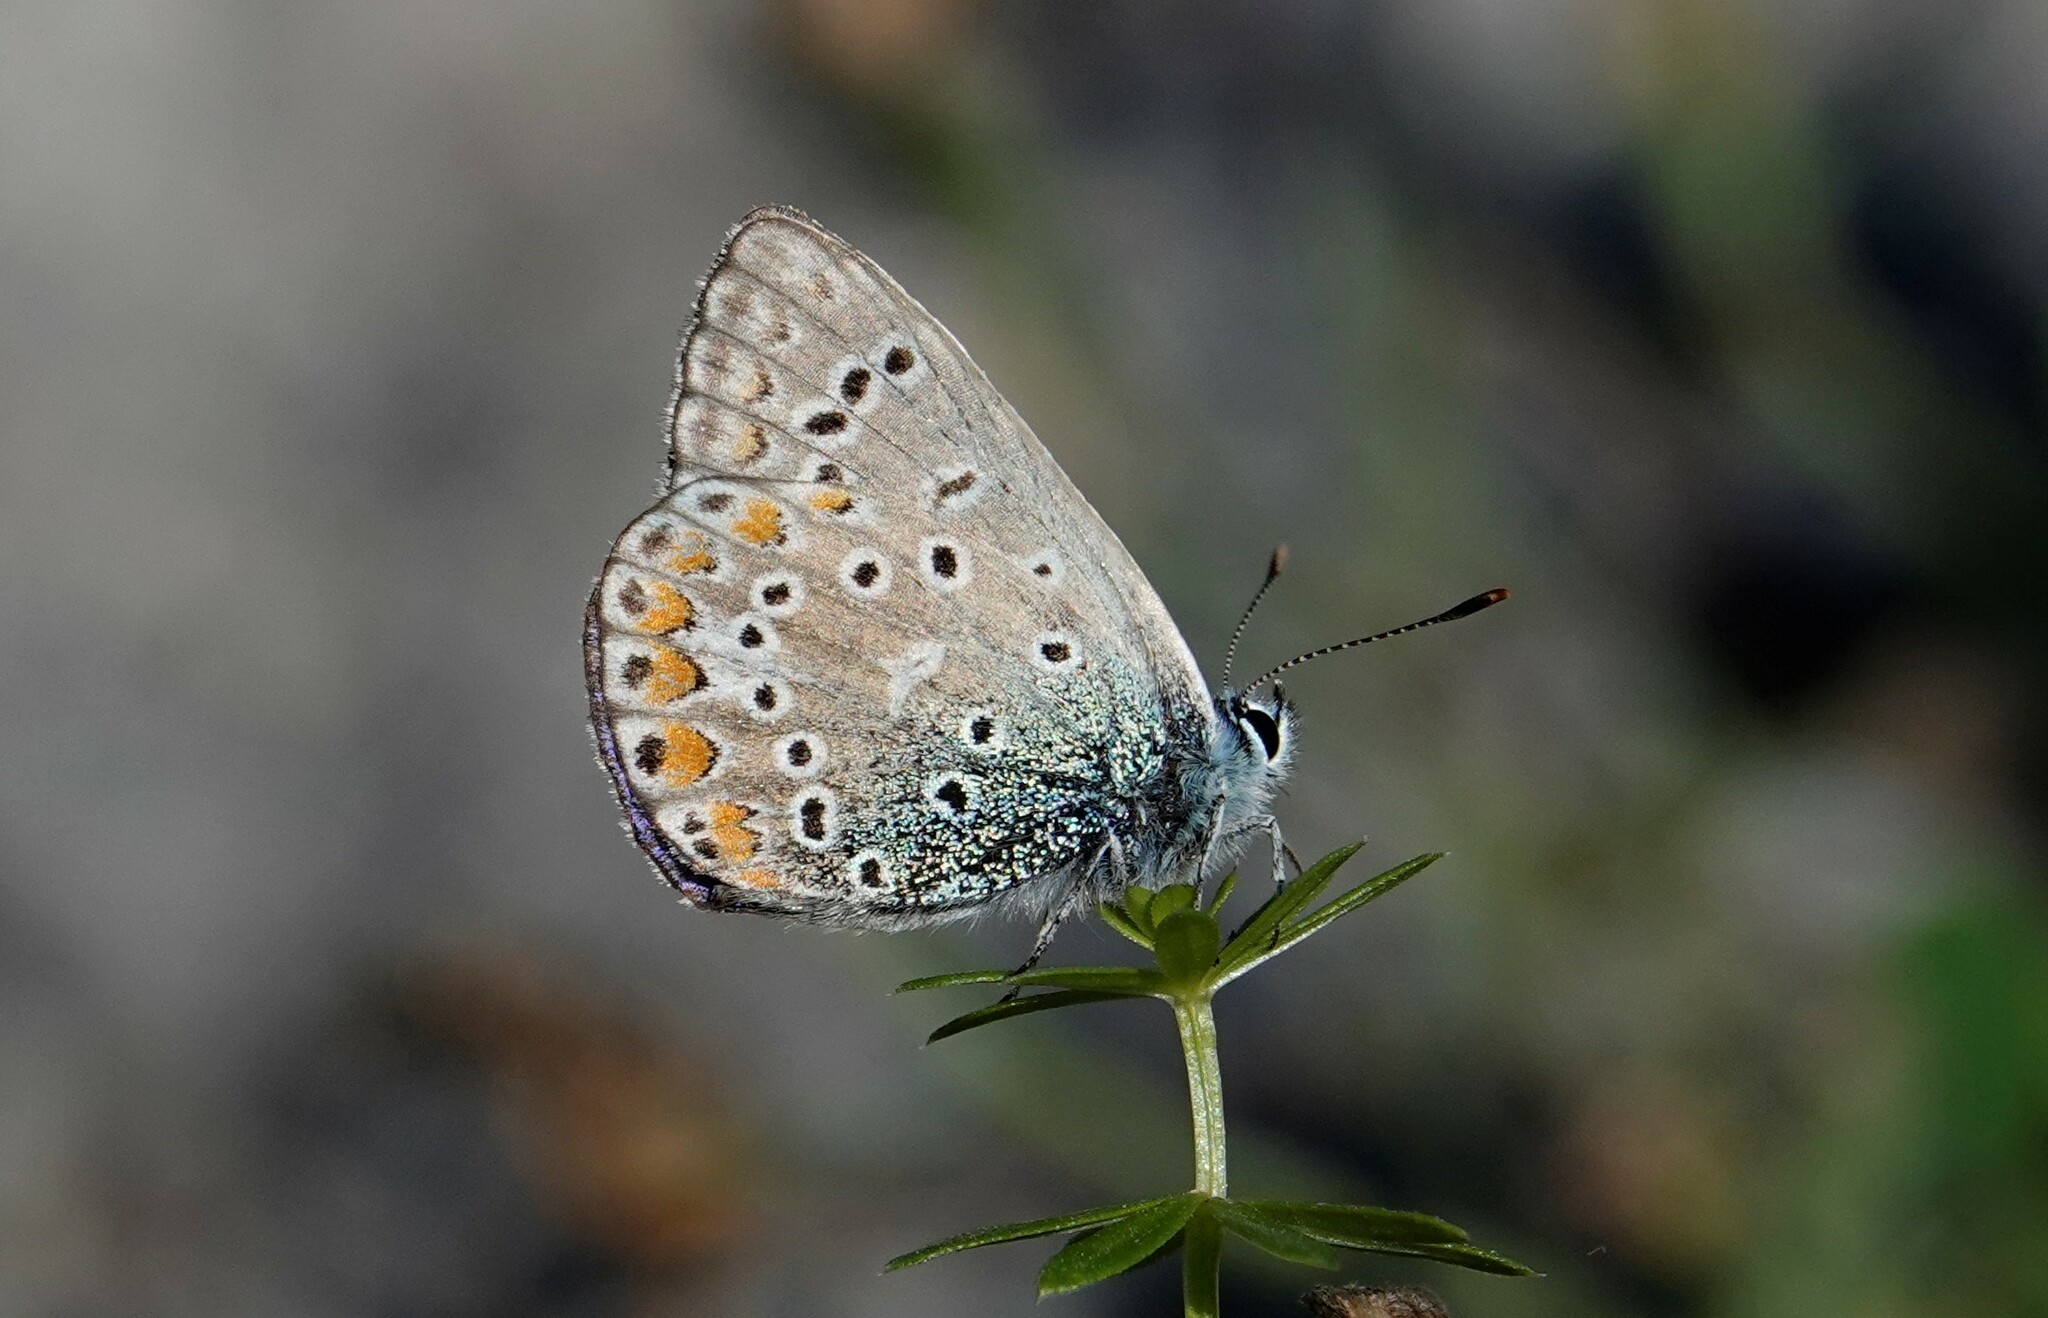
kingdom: Animalia
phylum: Arthropoda
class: Insecta
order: Lepidoptera
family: Lycaenidae
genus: Polyommatus
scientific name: Polyommatus icarus
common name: Common blue
